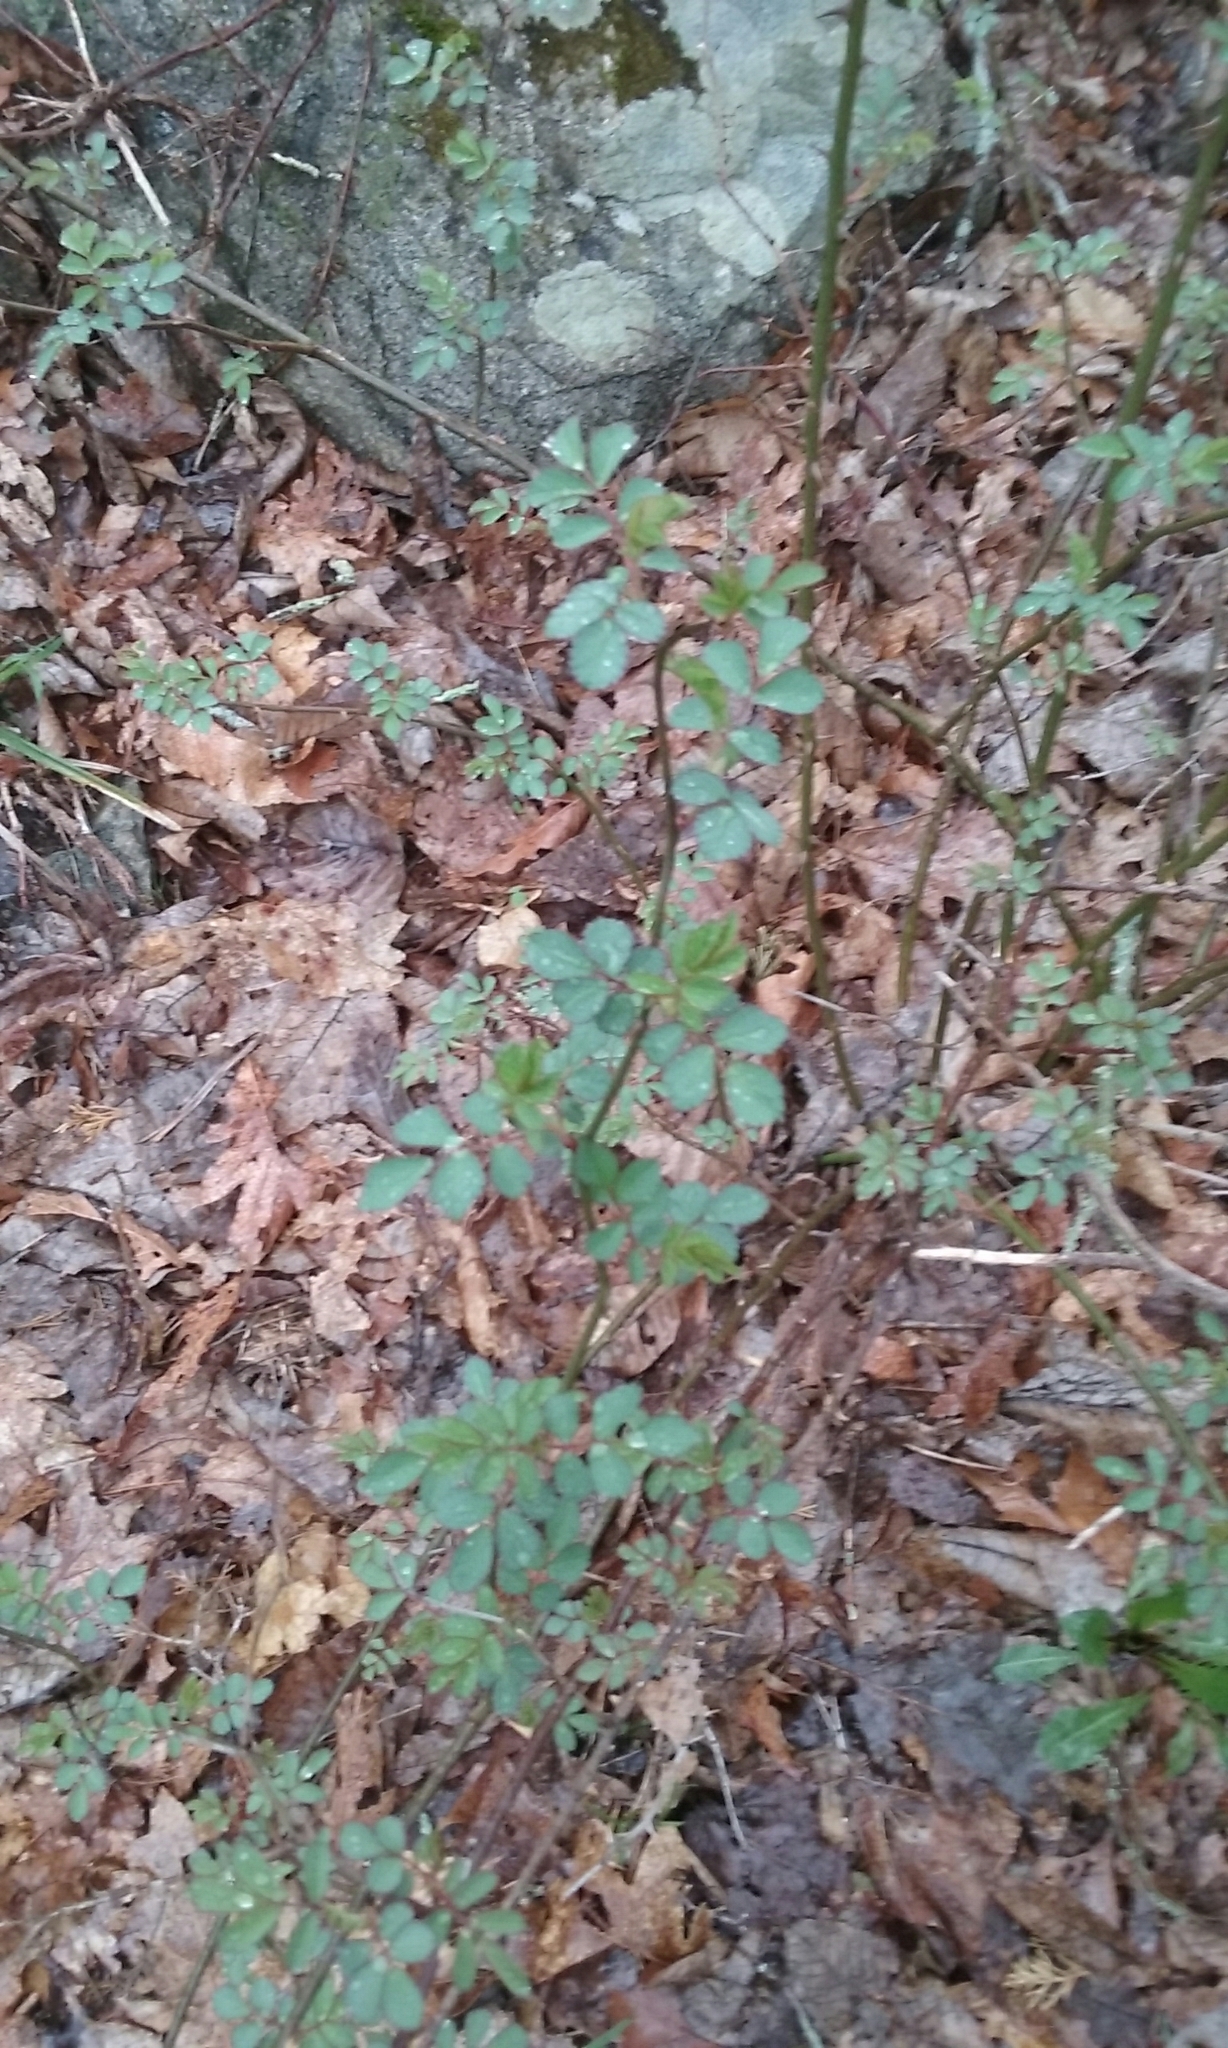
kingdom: Plantae
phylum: Tracheophyta
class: Magnoliopsida
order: Rosales
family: Rosaceae
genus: Rosa
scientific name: Rosa multiflora
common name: Multiflora rose
